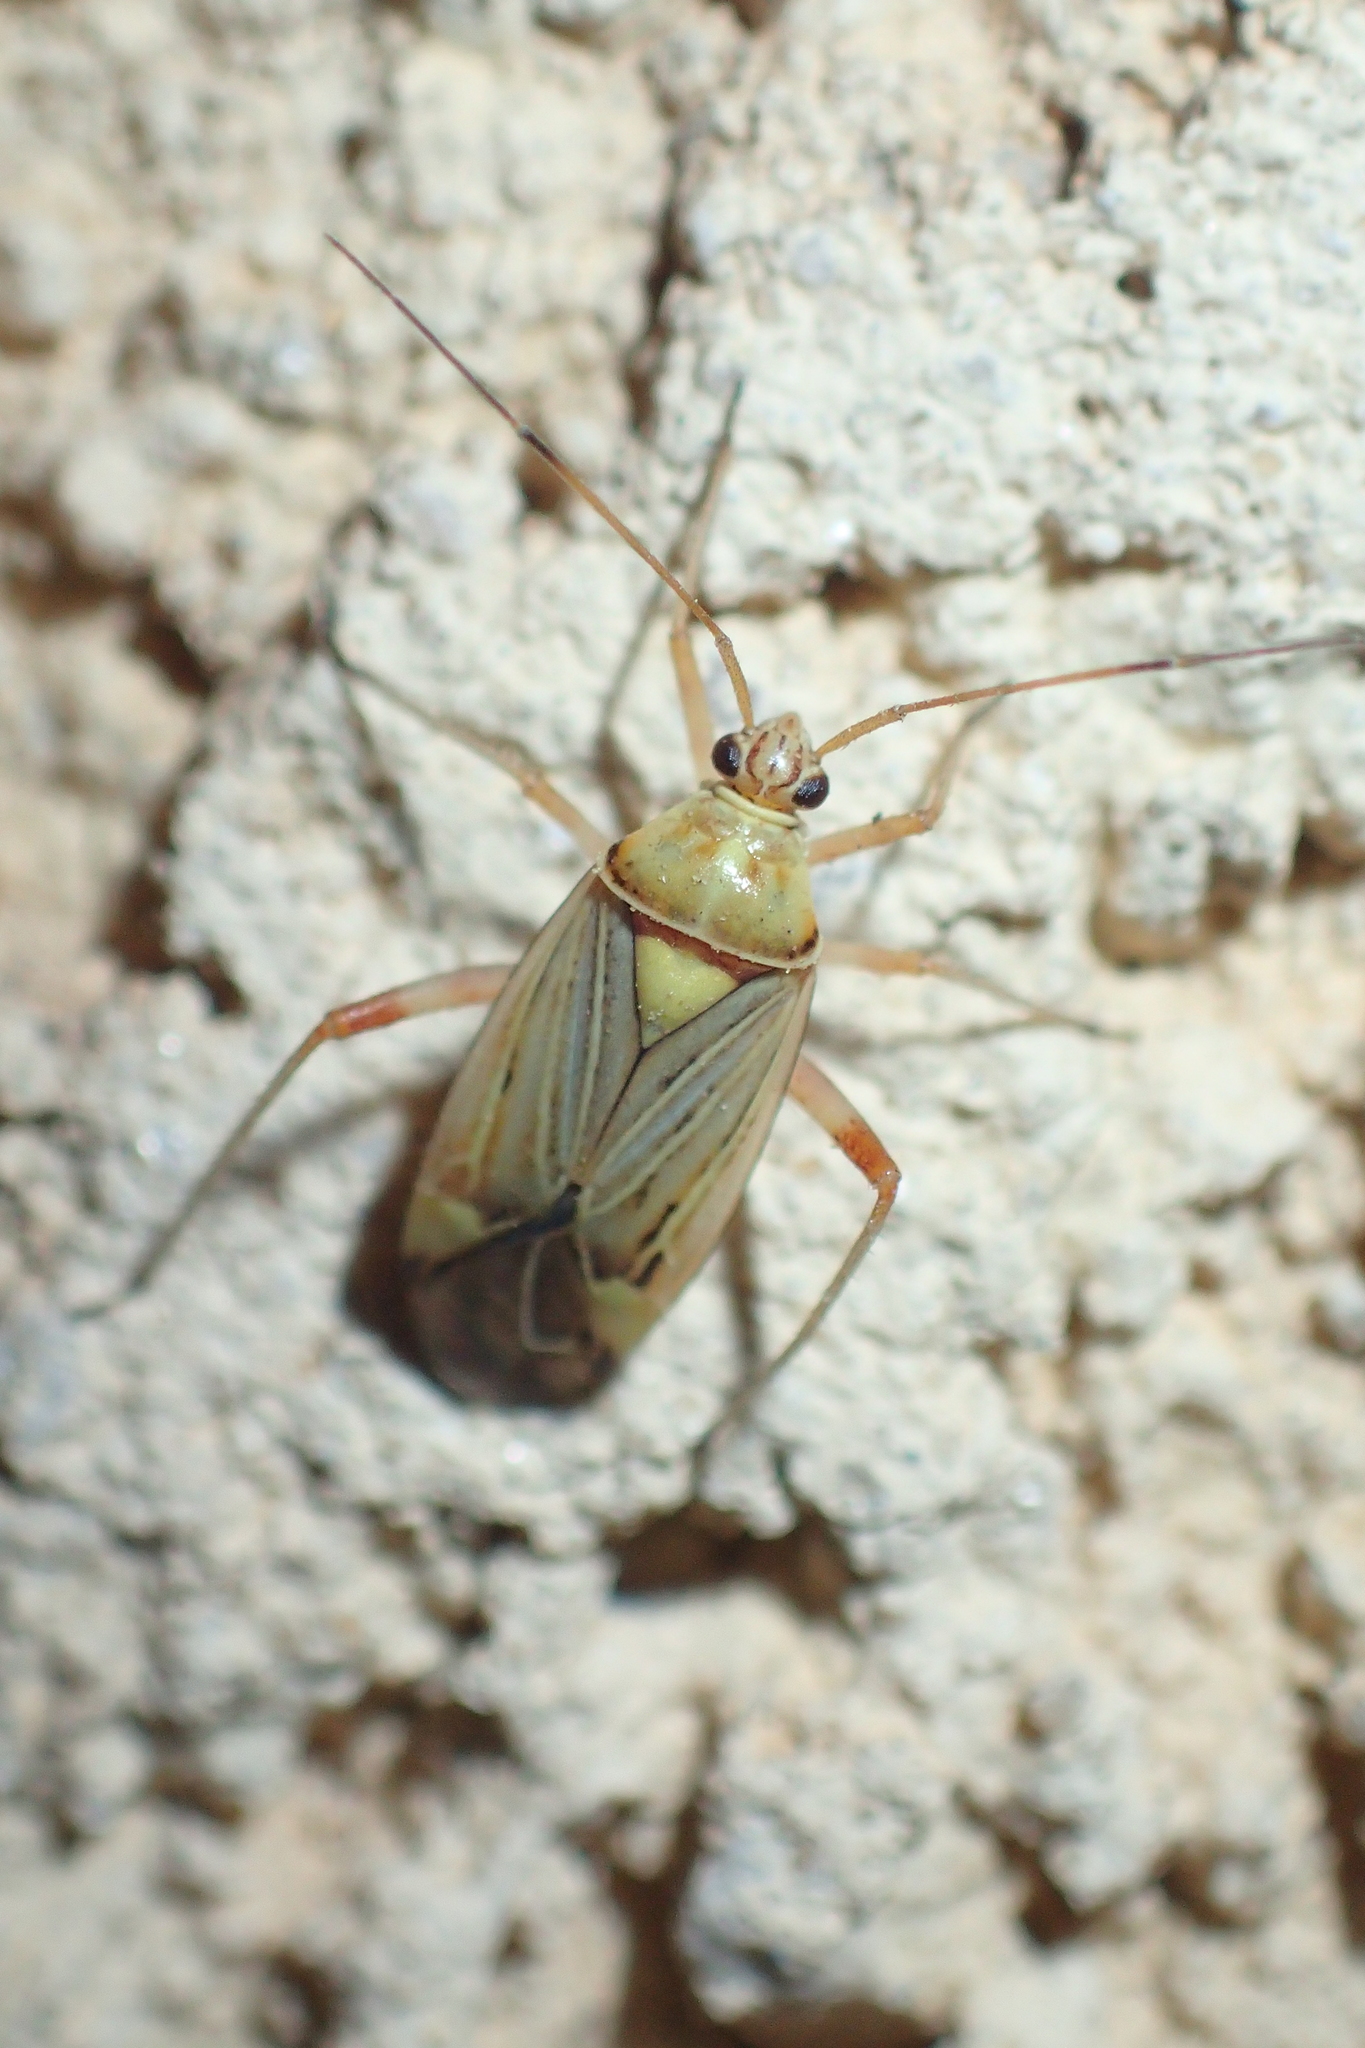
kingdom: Animalia
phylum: Arthropoda
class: Insecta
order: Hemiptera
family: Miridae
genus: Rhabdomiris
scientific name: Rhabdomiris striatellus
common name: Plant bug
